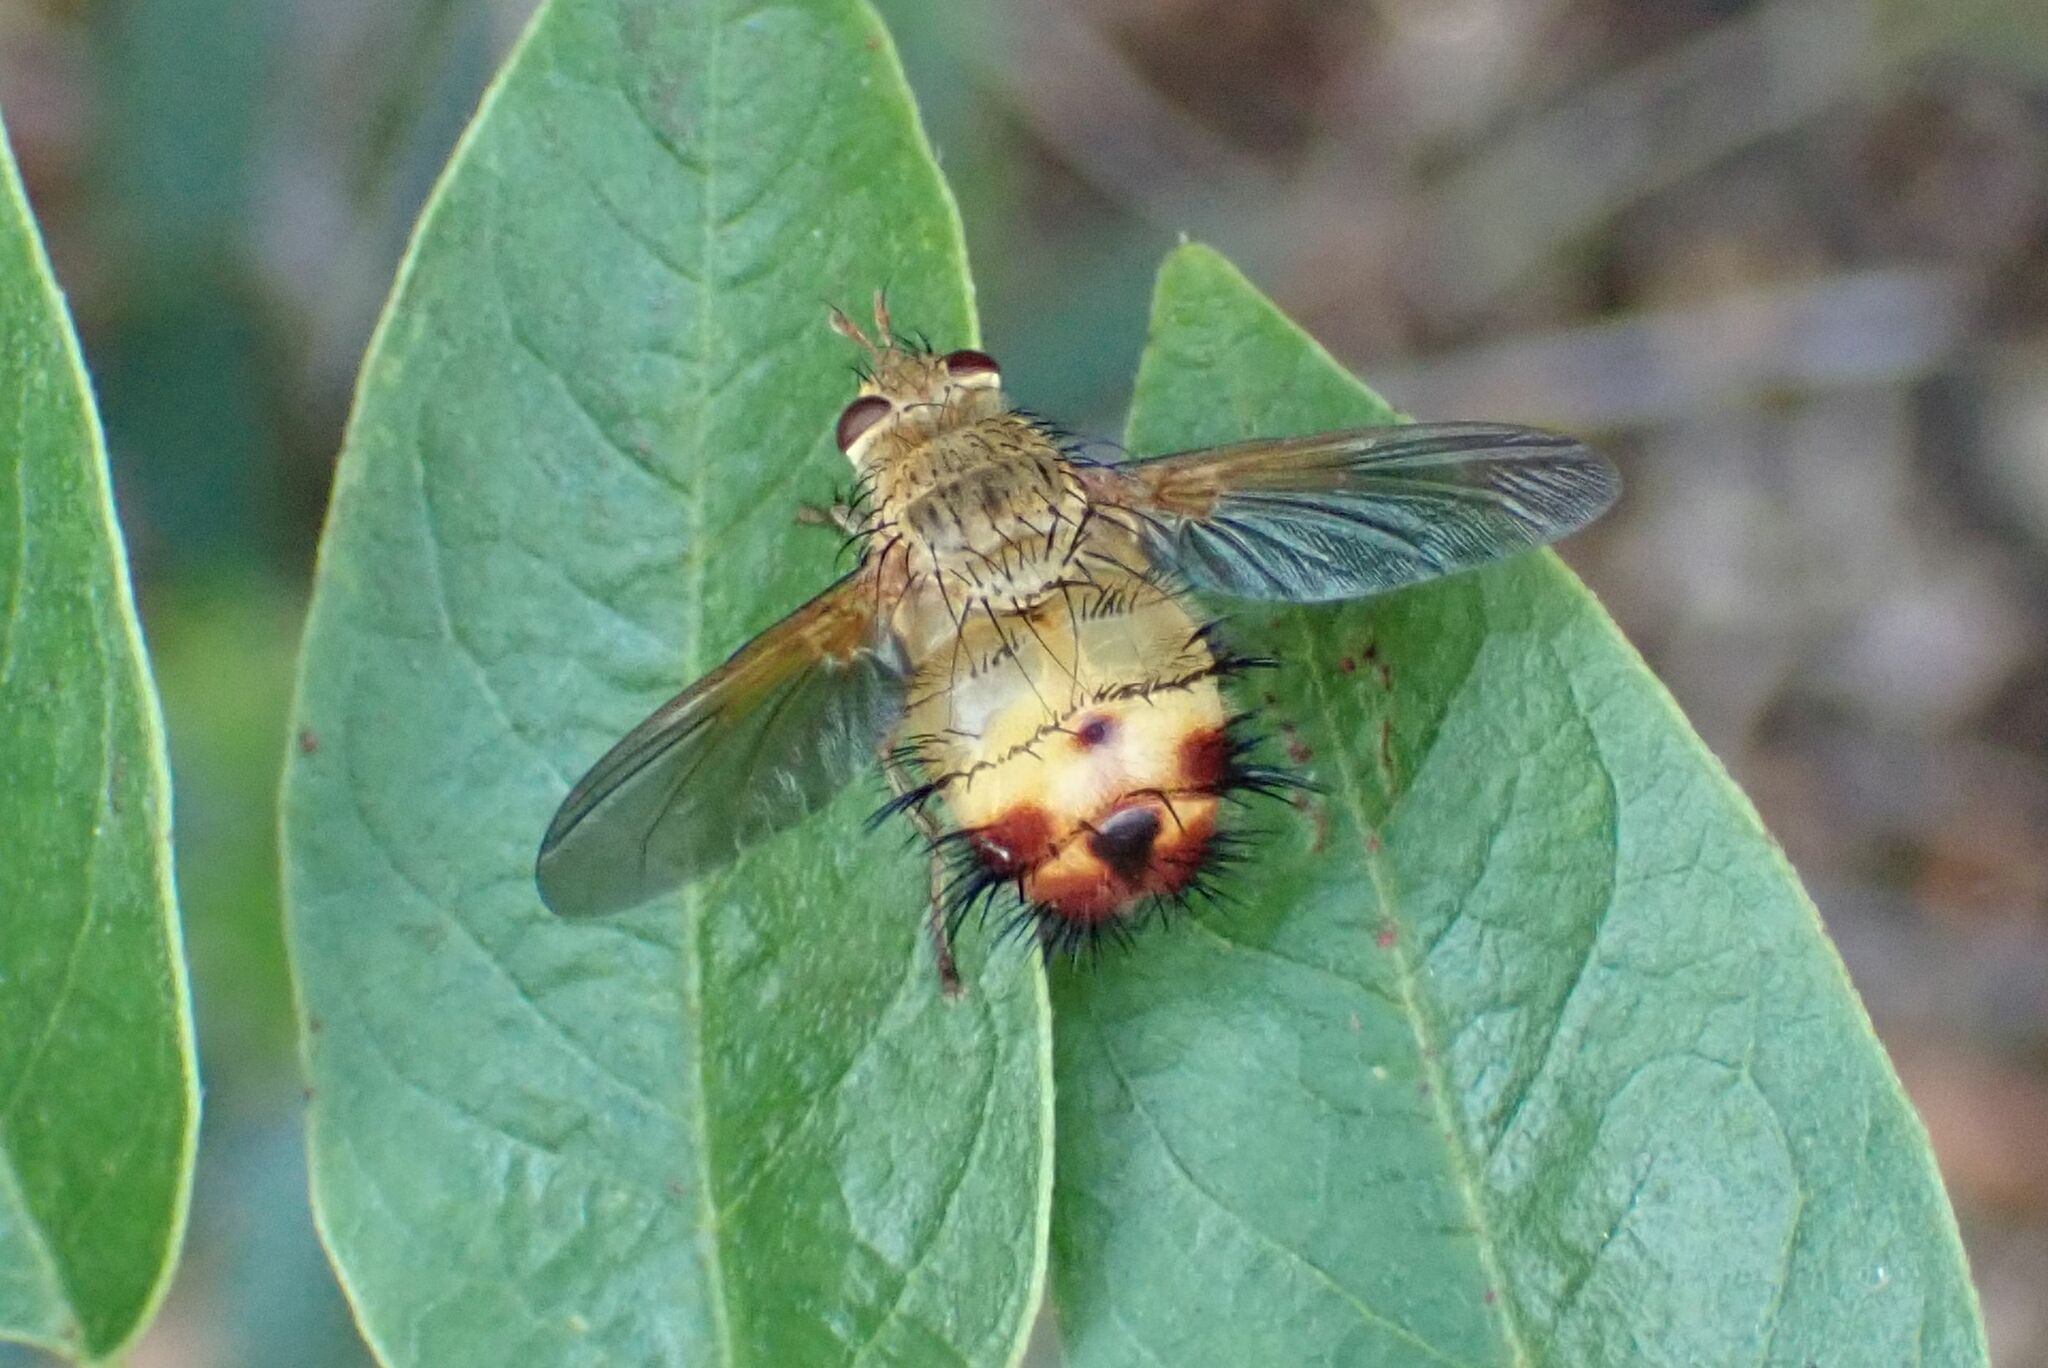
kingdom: Animalia
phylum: Arthropoda
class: Insecta
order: Diptera
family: Tachinidae
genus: Dejeania
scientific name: Dejeania bombylans
